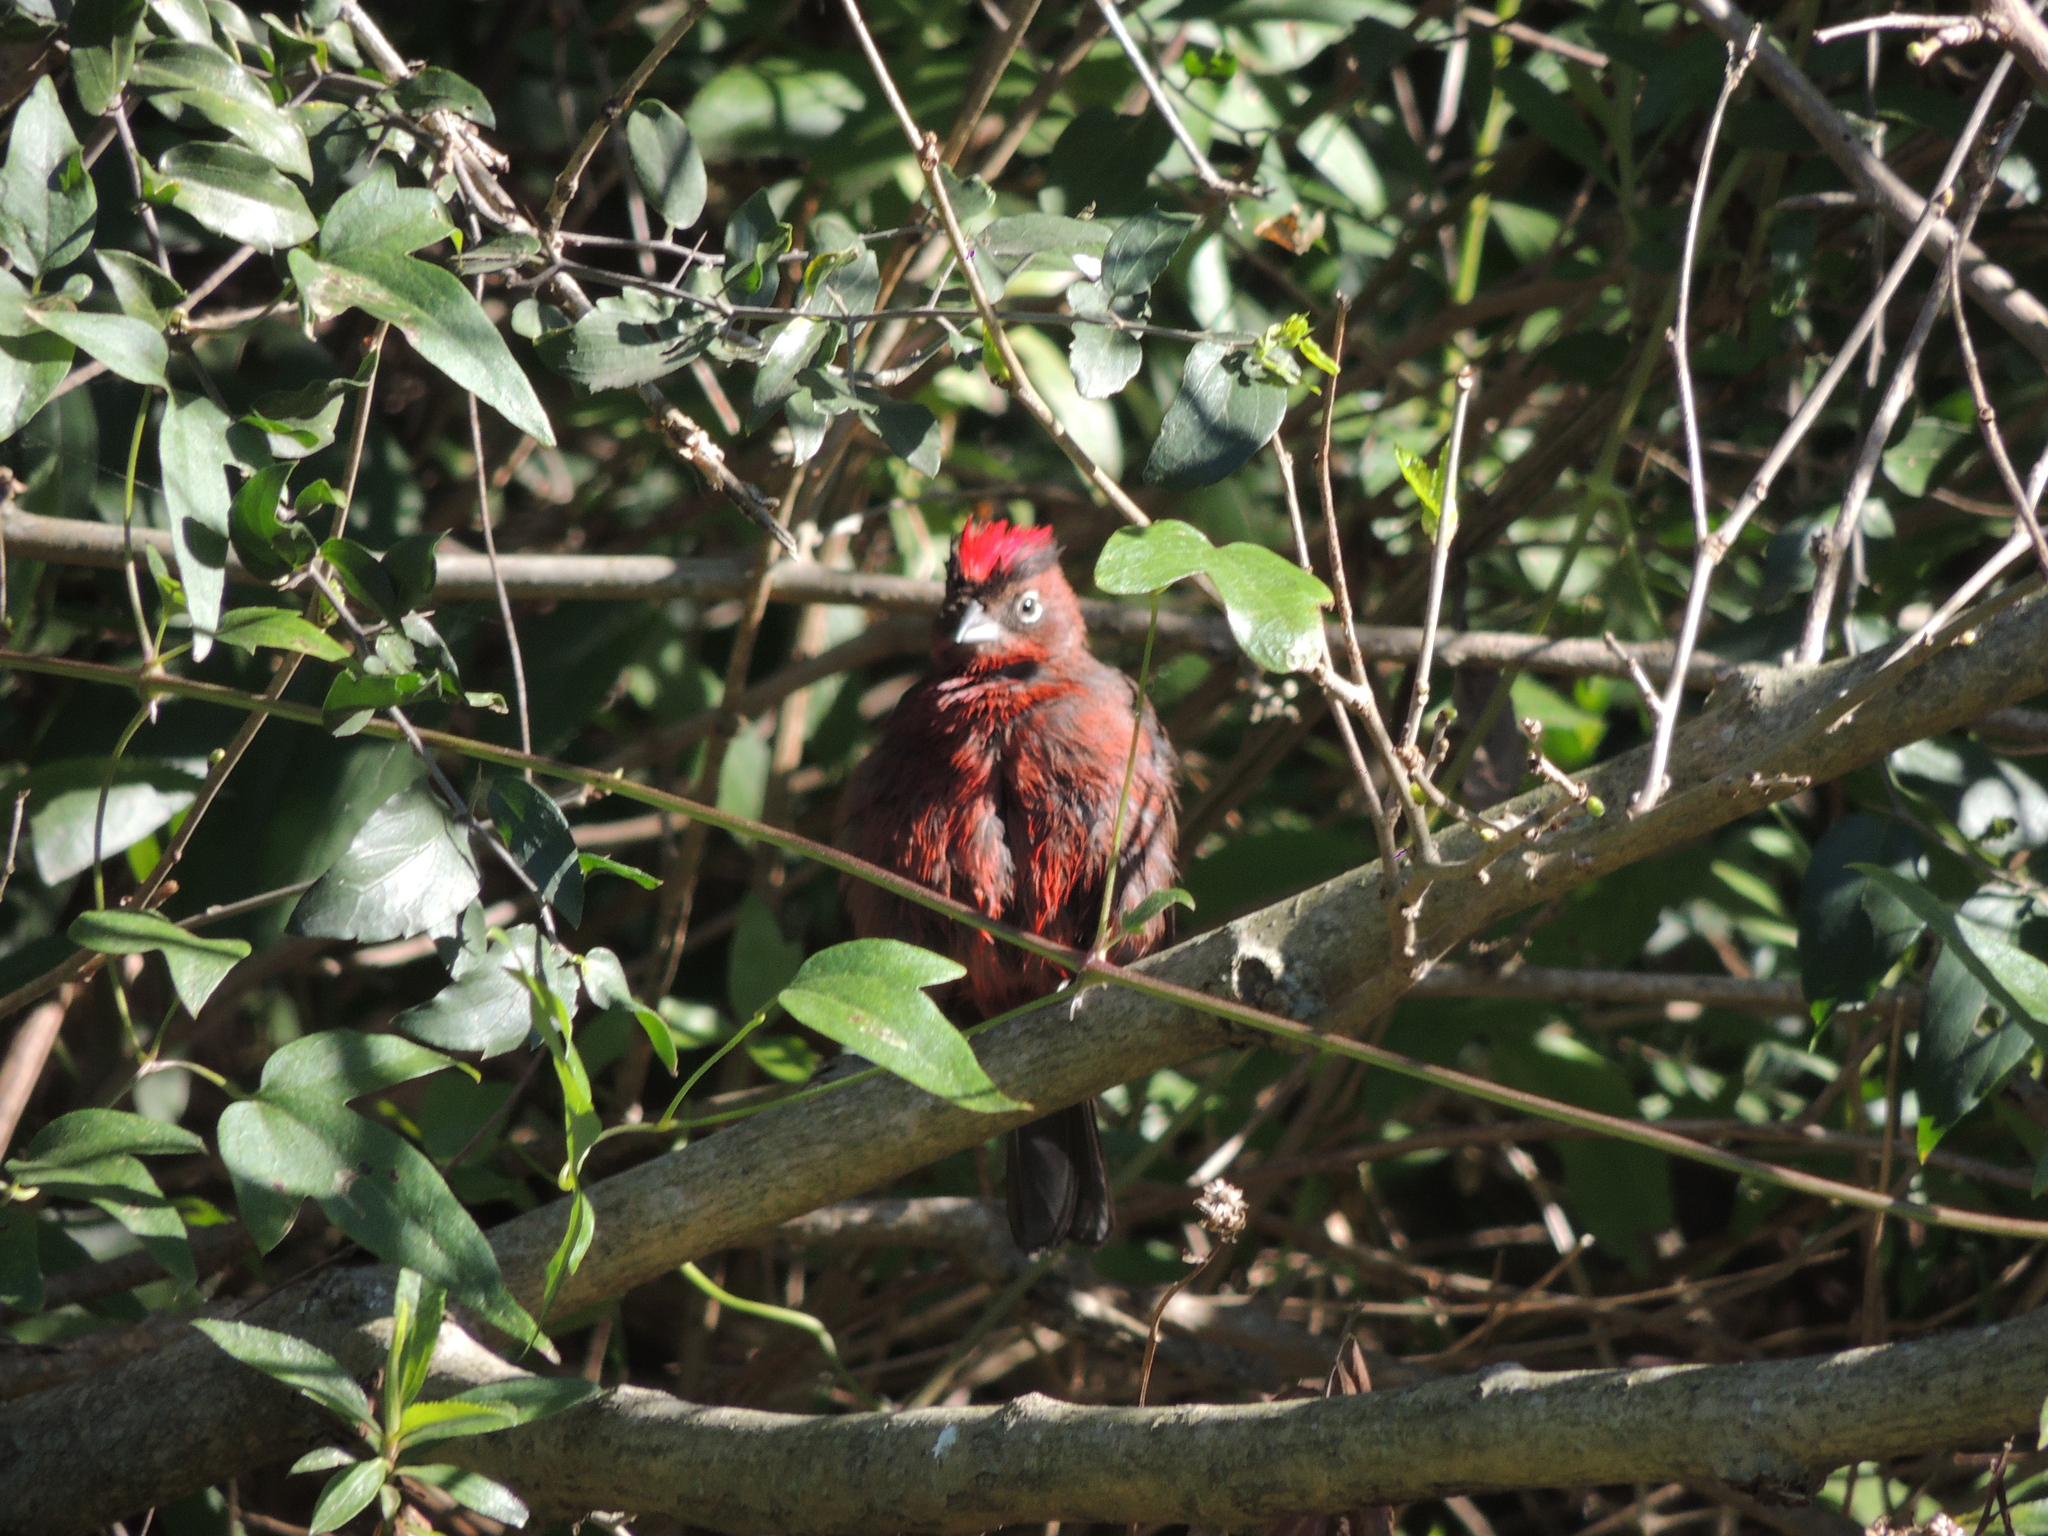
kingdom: Animalia
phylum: Chordata
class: Aves
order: Passeriformes
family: Thraupidae
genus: Coryphospingus
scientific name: Coryphospingus cucullatus
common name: Red pileated finch
